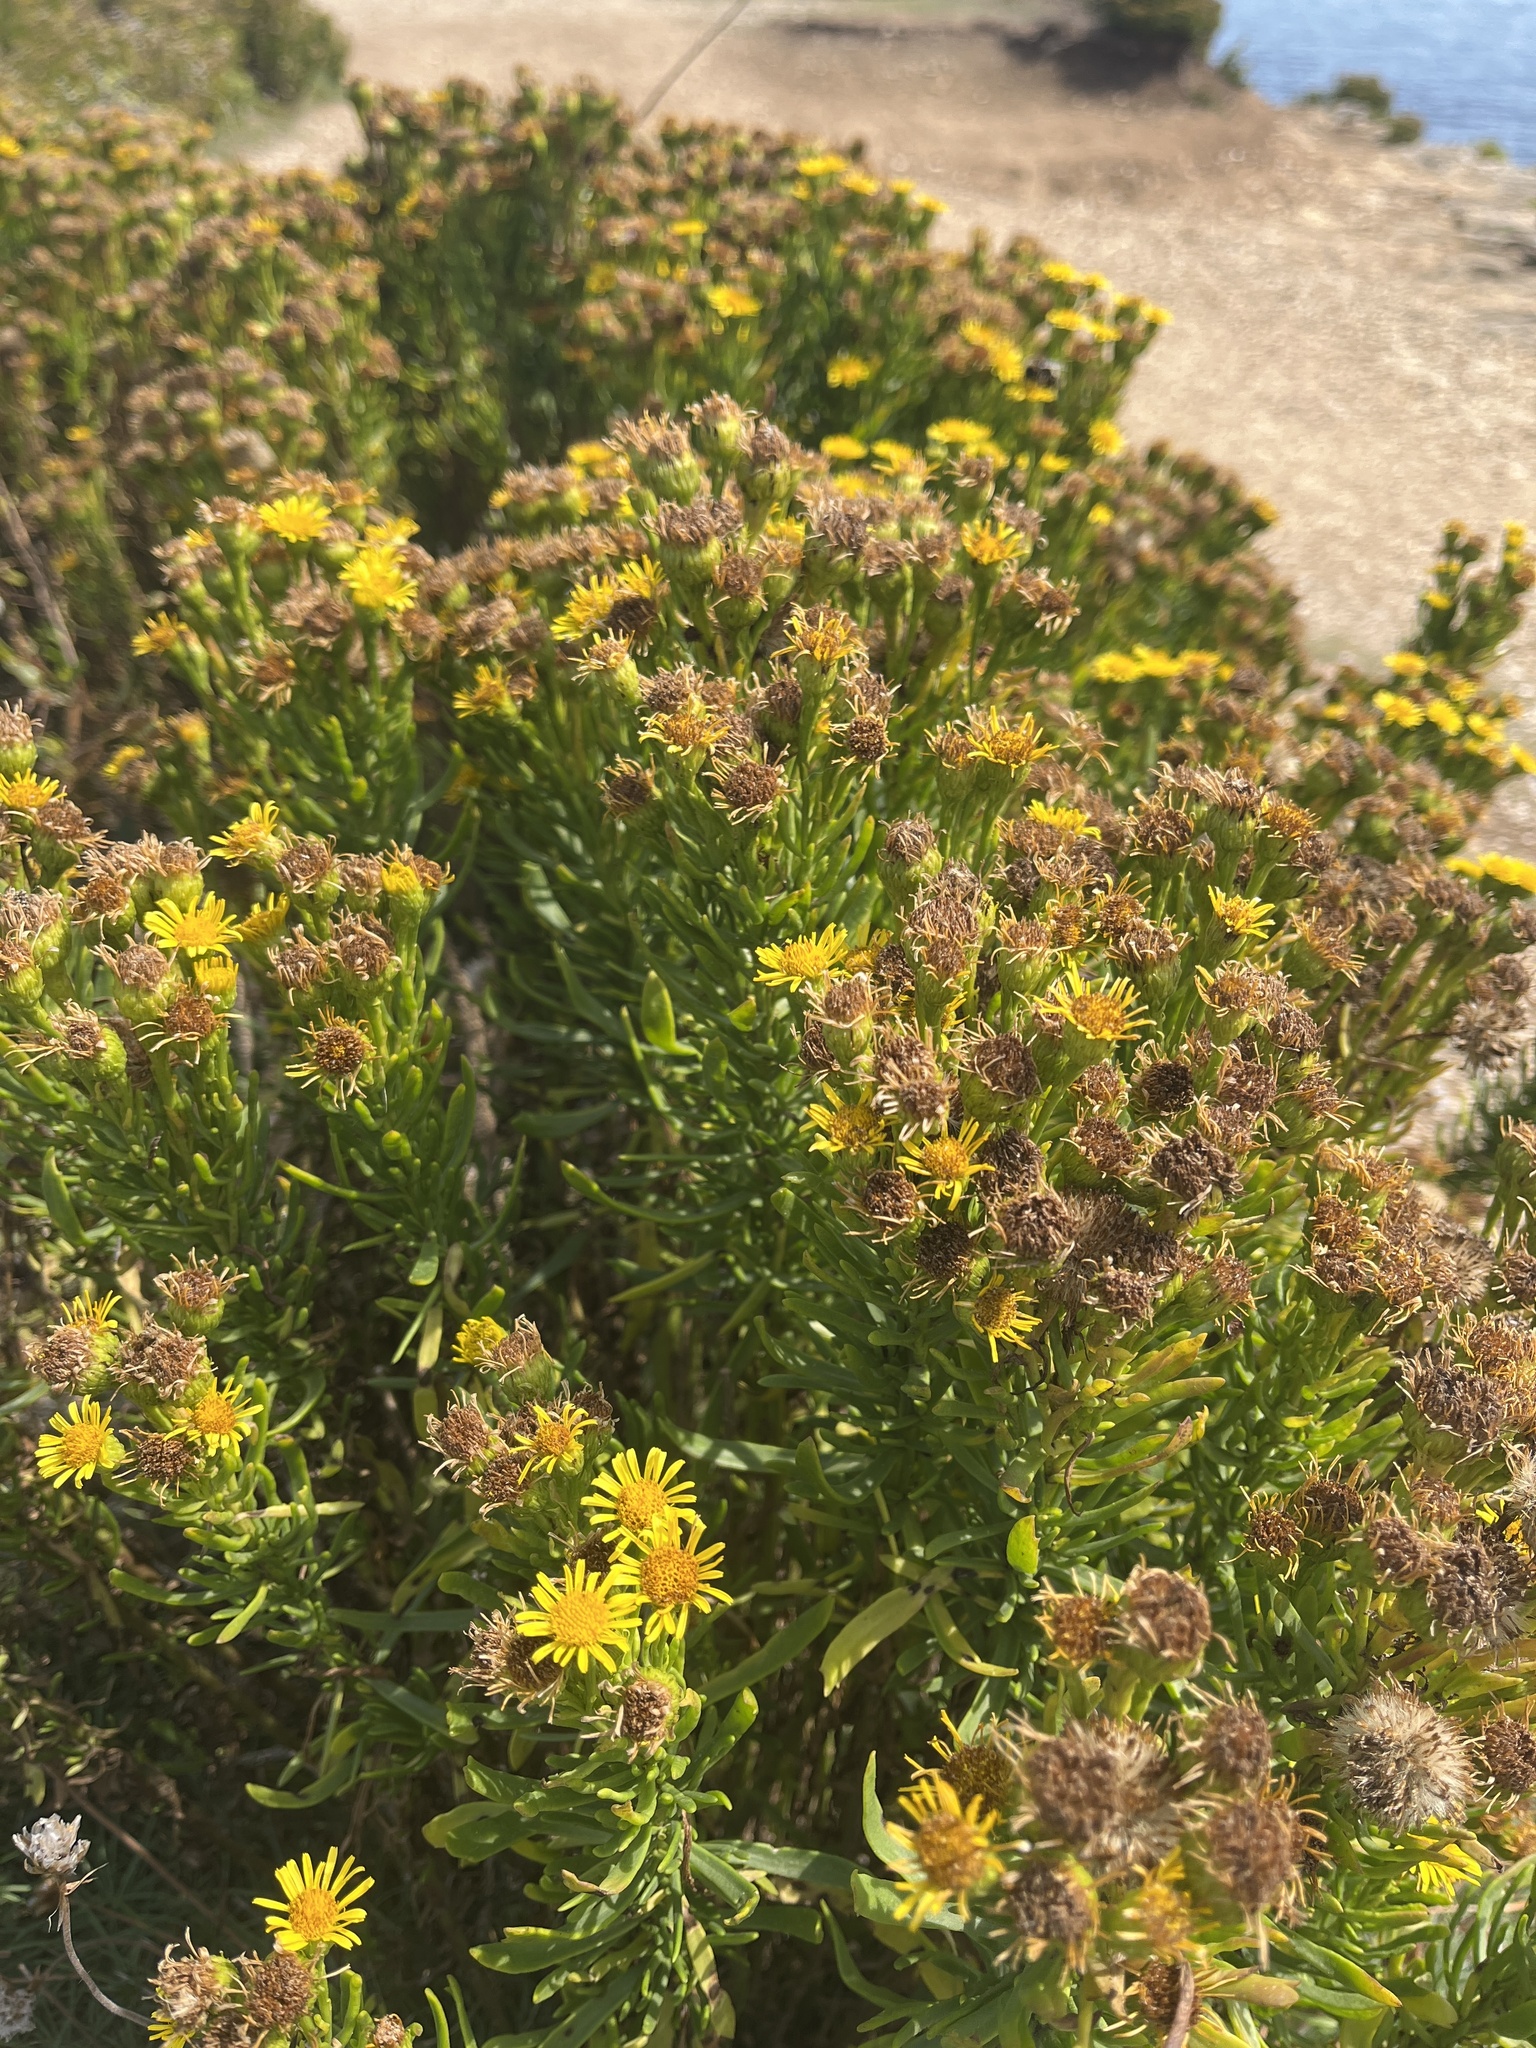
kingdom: Plantae
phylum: Tracheophyta
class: Magnoliopsida
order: Asterales
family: Asteraceae
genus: Limbarda
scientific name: Limbarda crithmoides
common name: Golden samphire
